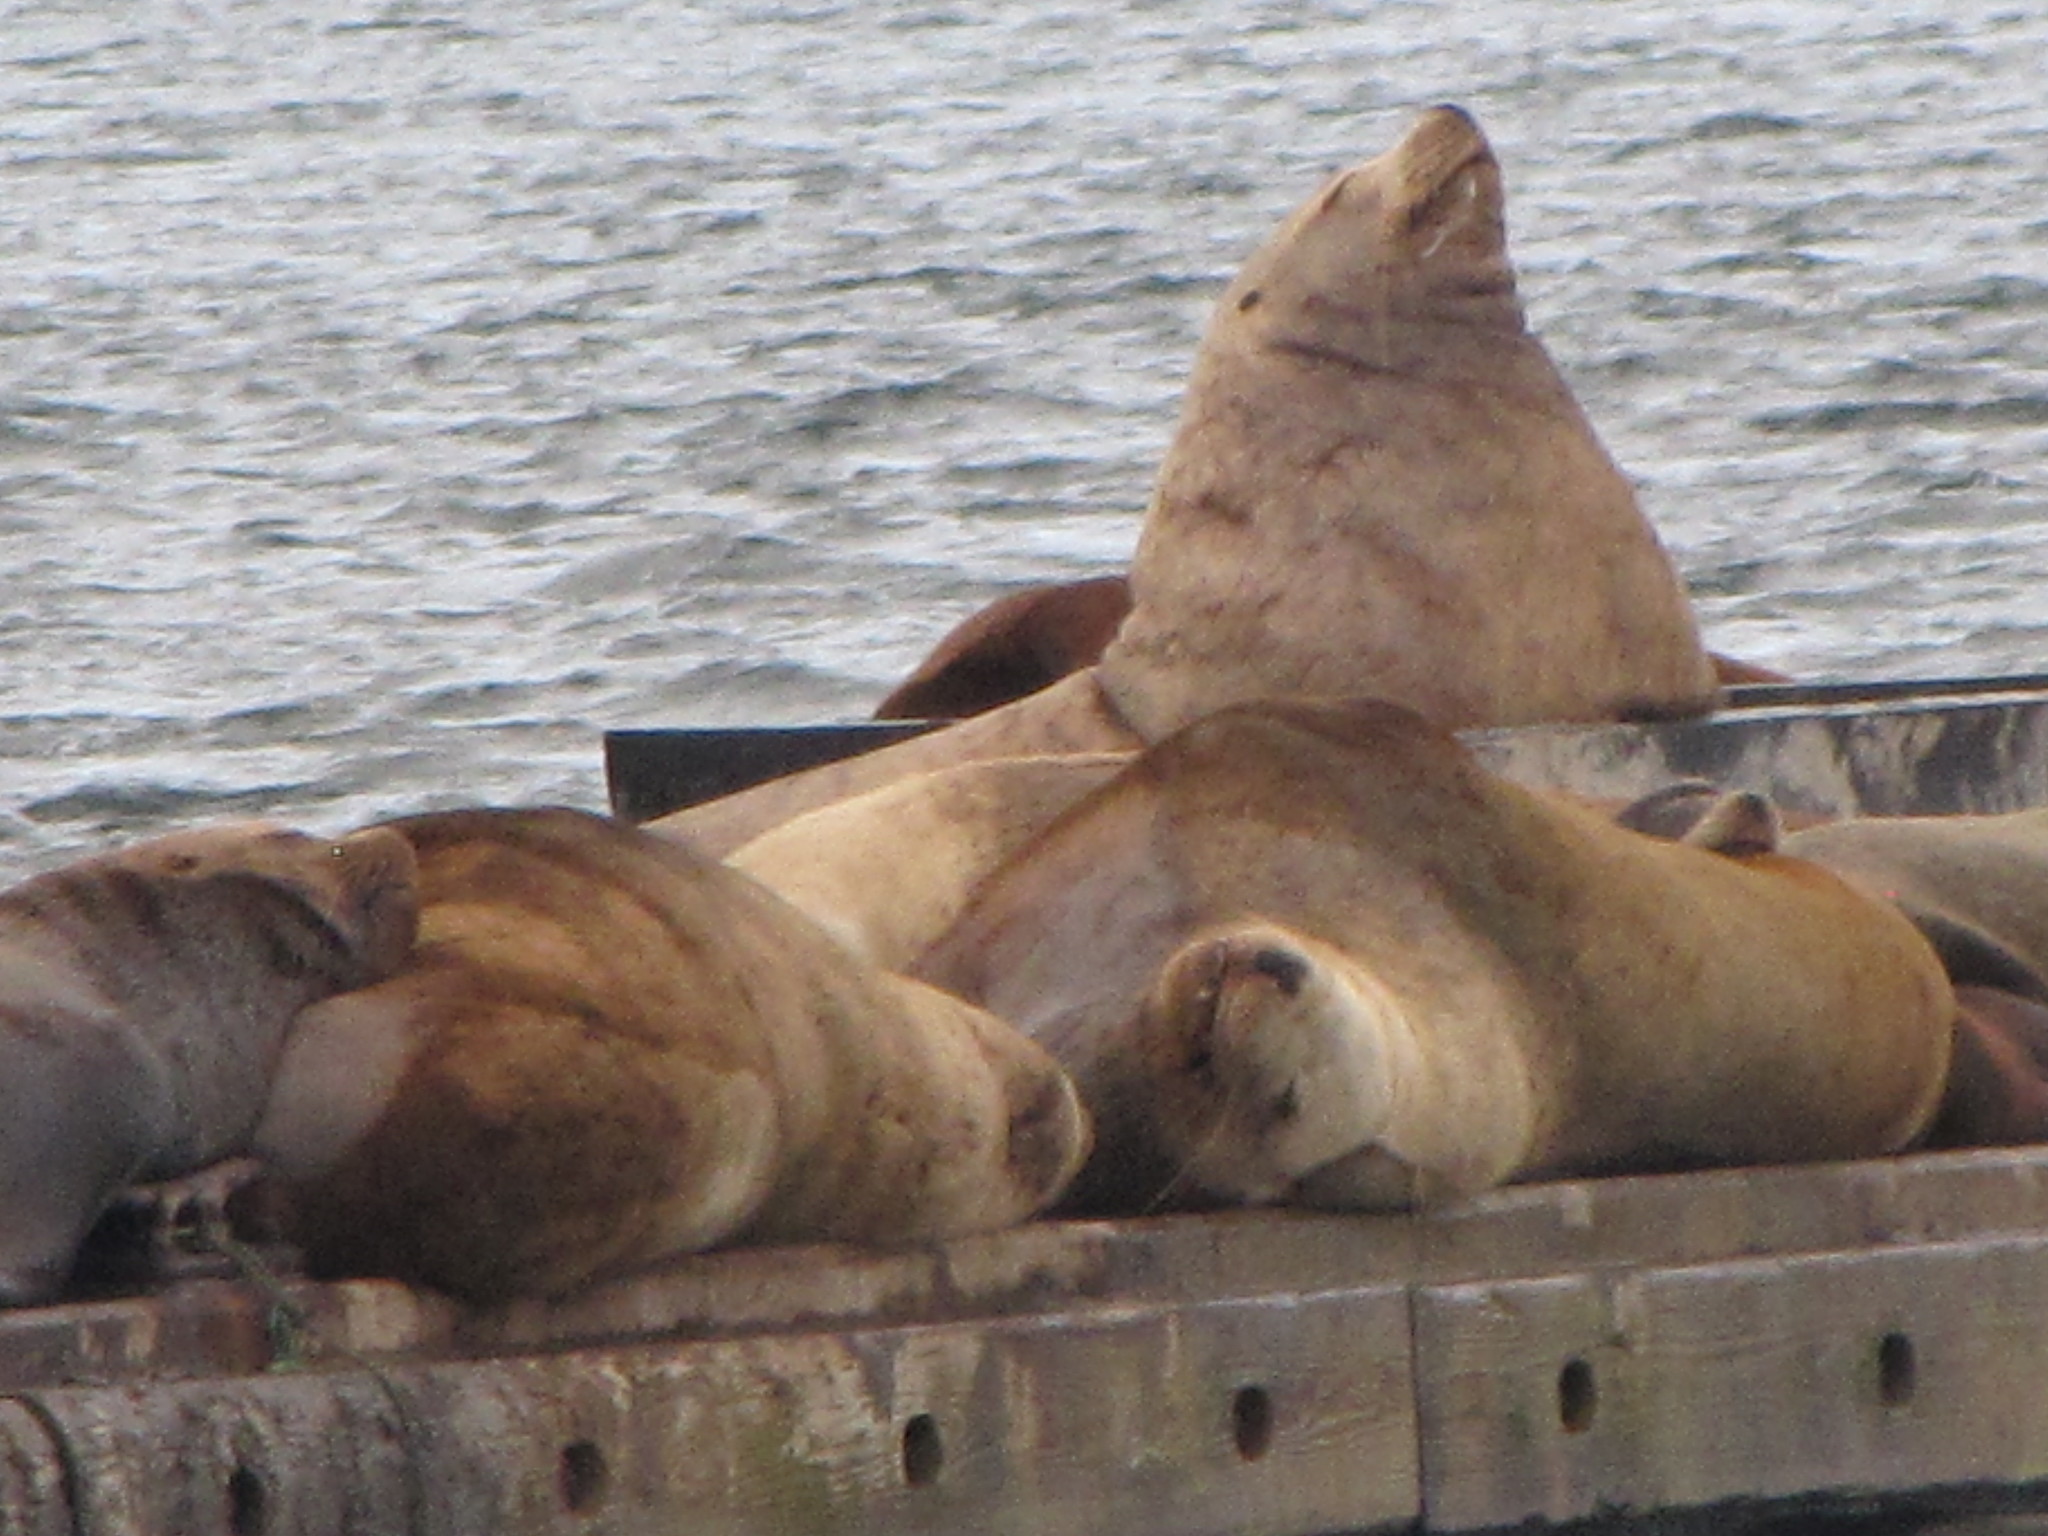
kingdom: Animalia
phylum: Chordata
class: Mammalia
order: Carnivora
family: Otariidae
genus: Eumetopias
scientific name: Eumetopias jubatus
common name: Steller sea lion
